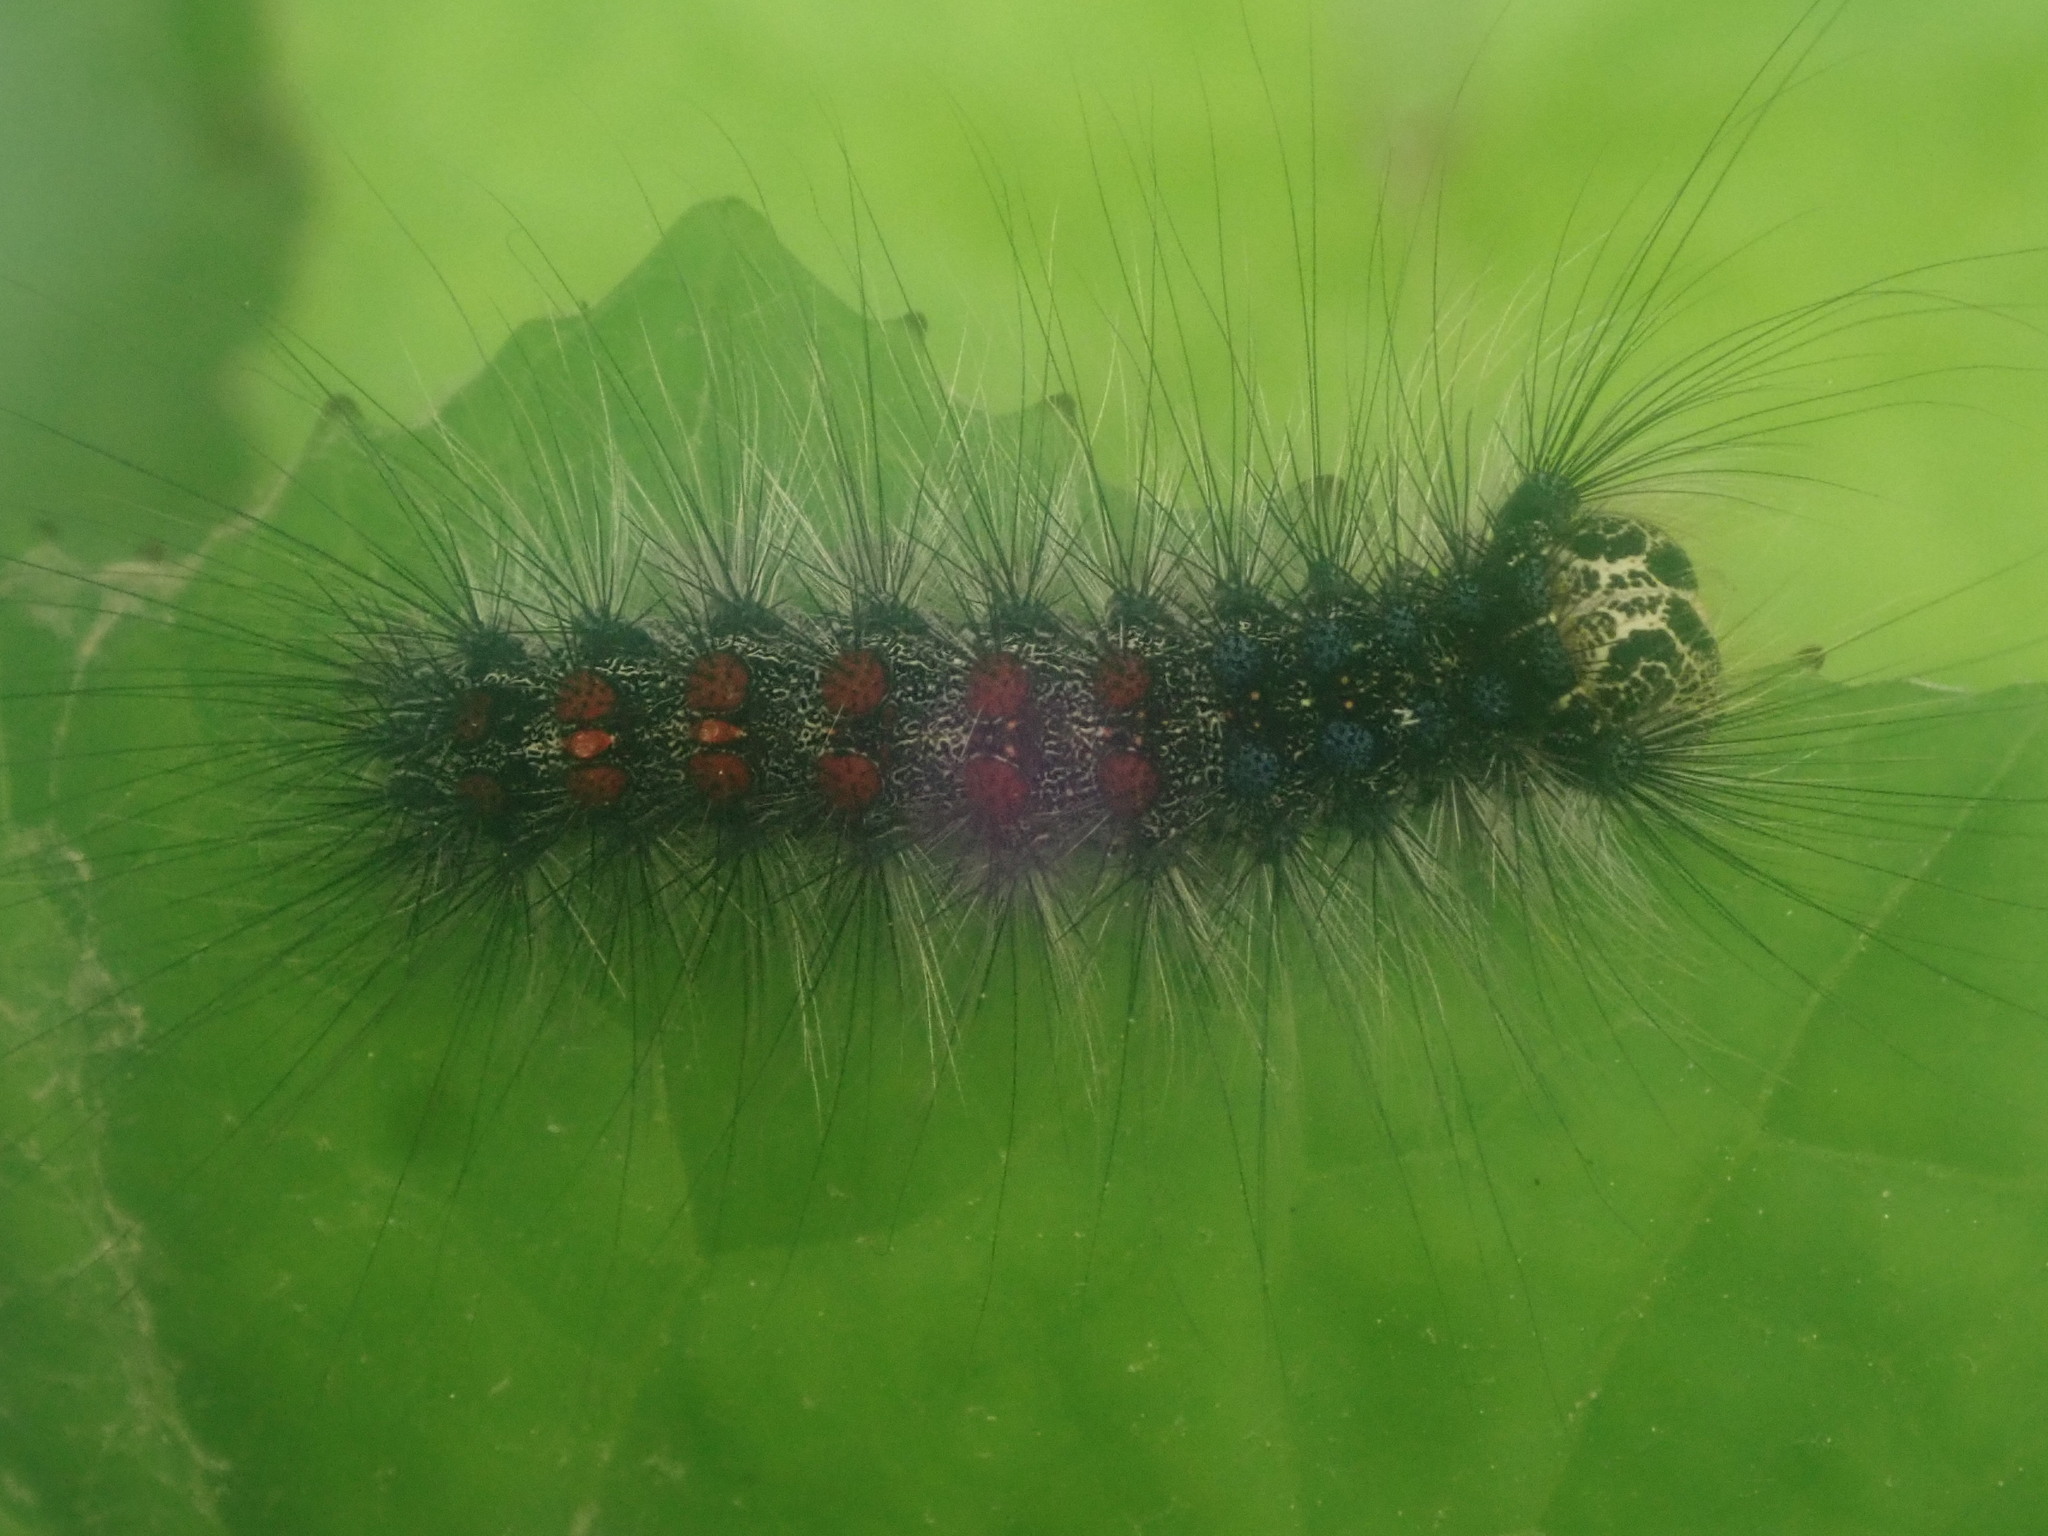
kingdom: Animalia
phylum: Arthropoda
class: Insecta
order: Lepidoptera
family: Erebidae
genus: Lymantria
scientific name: Lymantria dispar
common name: Gypsy moth
